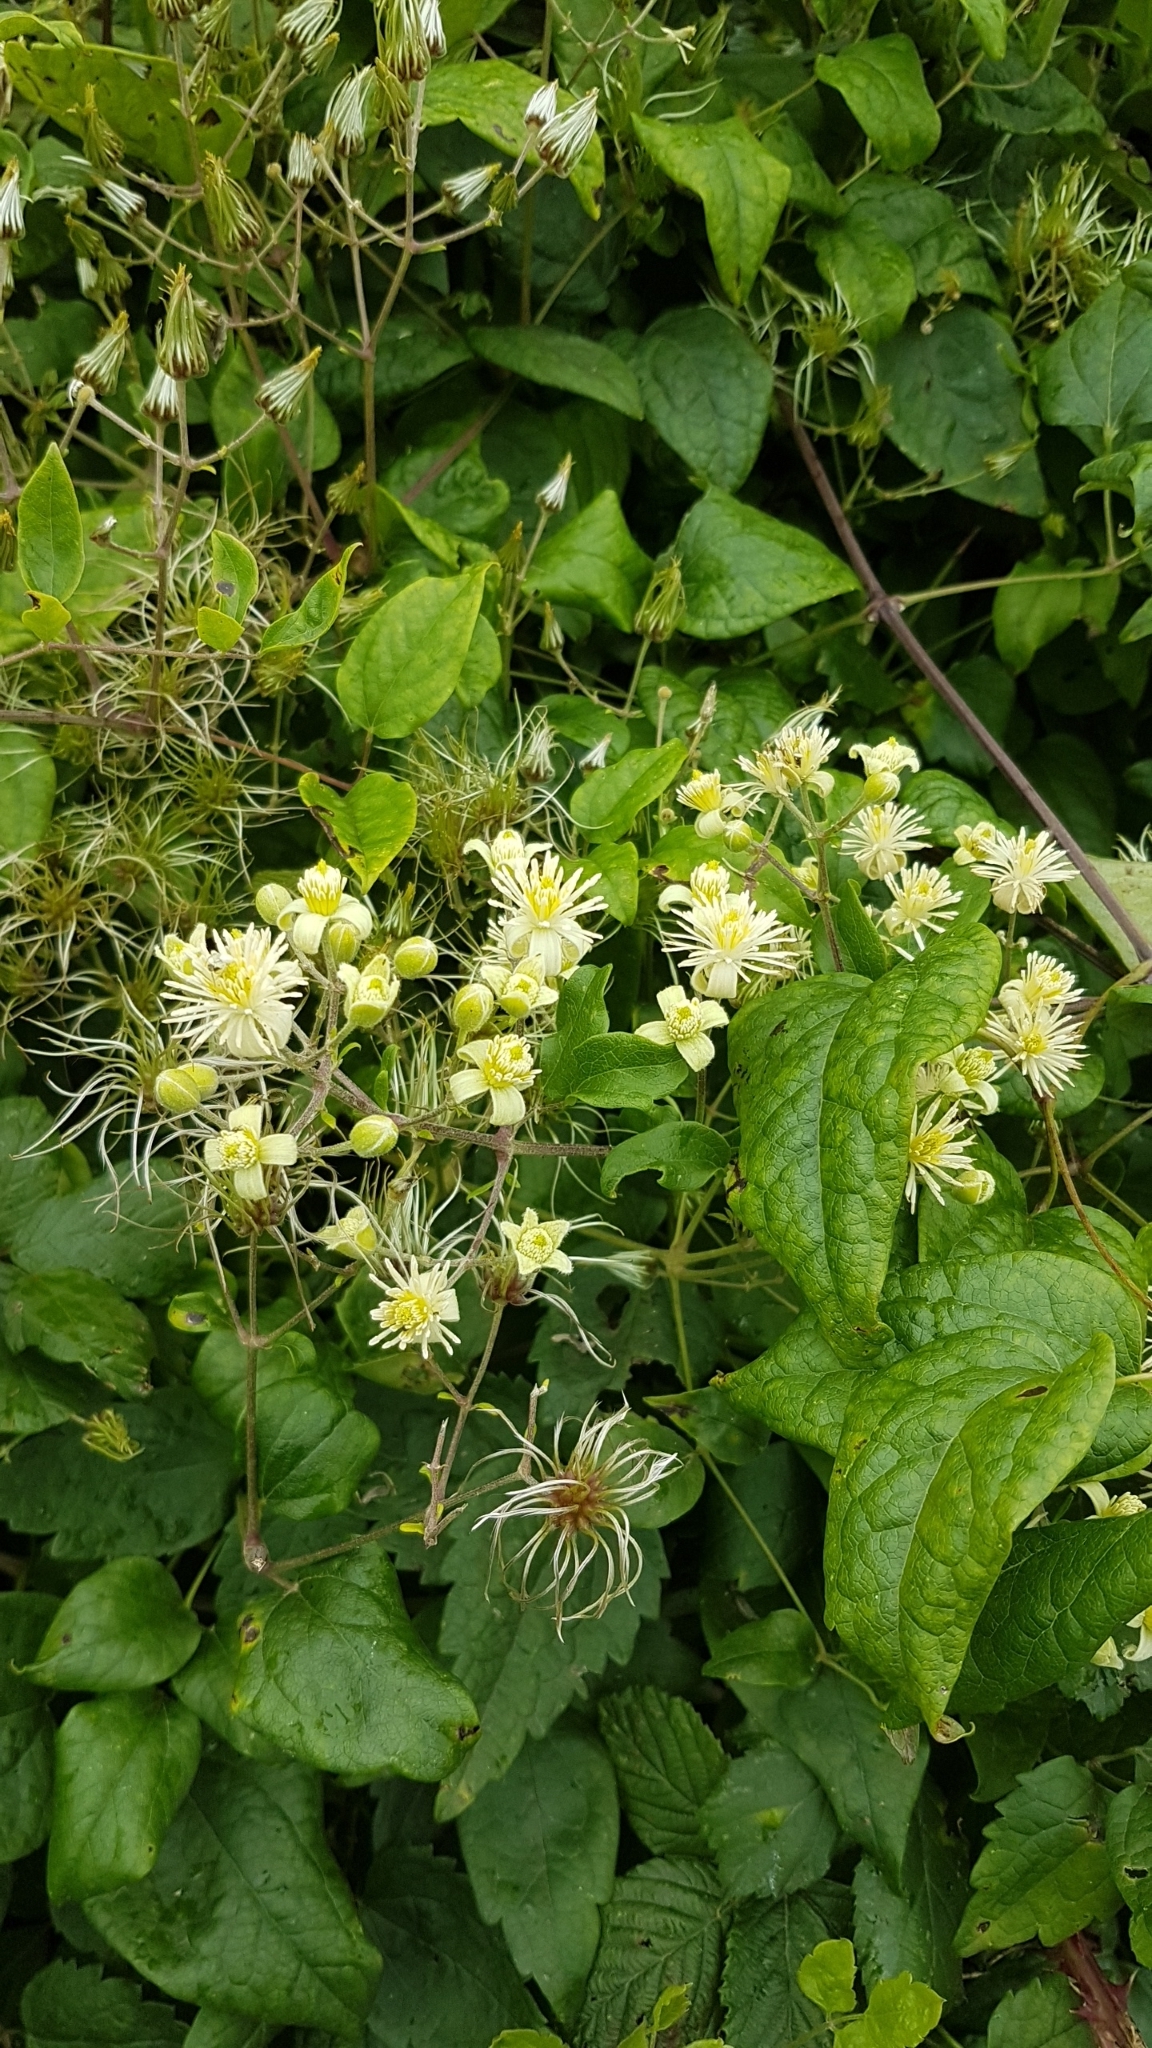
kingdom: Plantae
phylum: Tracheophyta
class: Magnoliopsida
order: Ranunculales
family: Ranunculaceae
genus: Clematis
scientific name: Clematis vitalba
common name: Evergreen clematis
